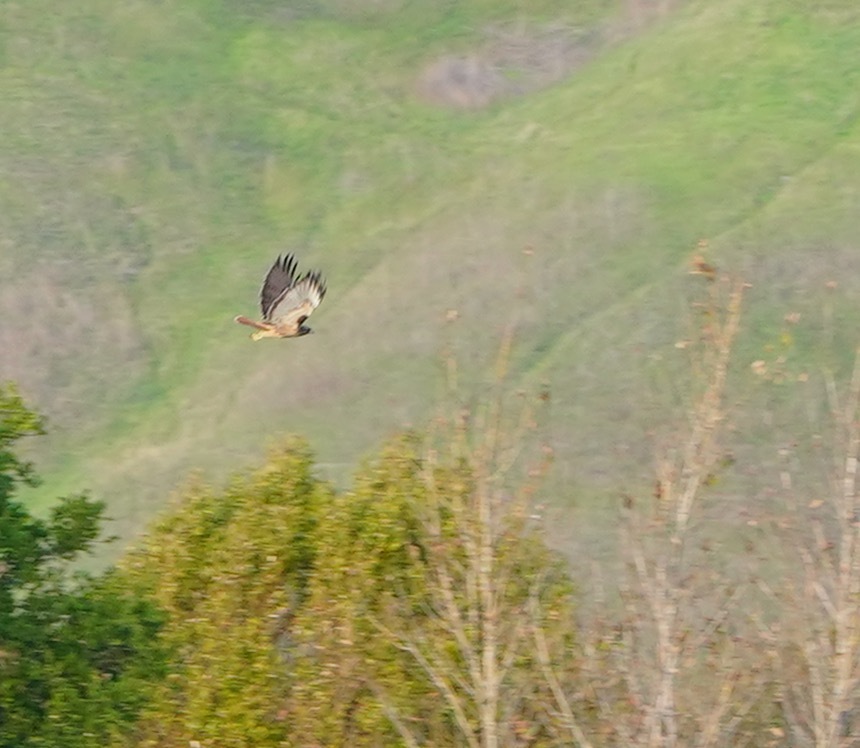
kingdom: Animalia
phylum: Chordata
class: Aves
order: Accipitriformes
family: Accipitridae
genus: Buteo
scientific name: Buteo jamaicensis
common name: Red-tailed hawk
